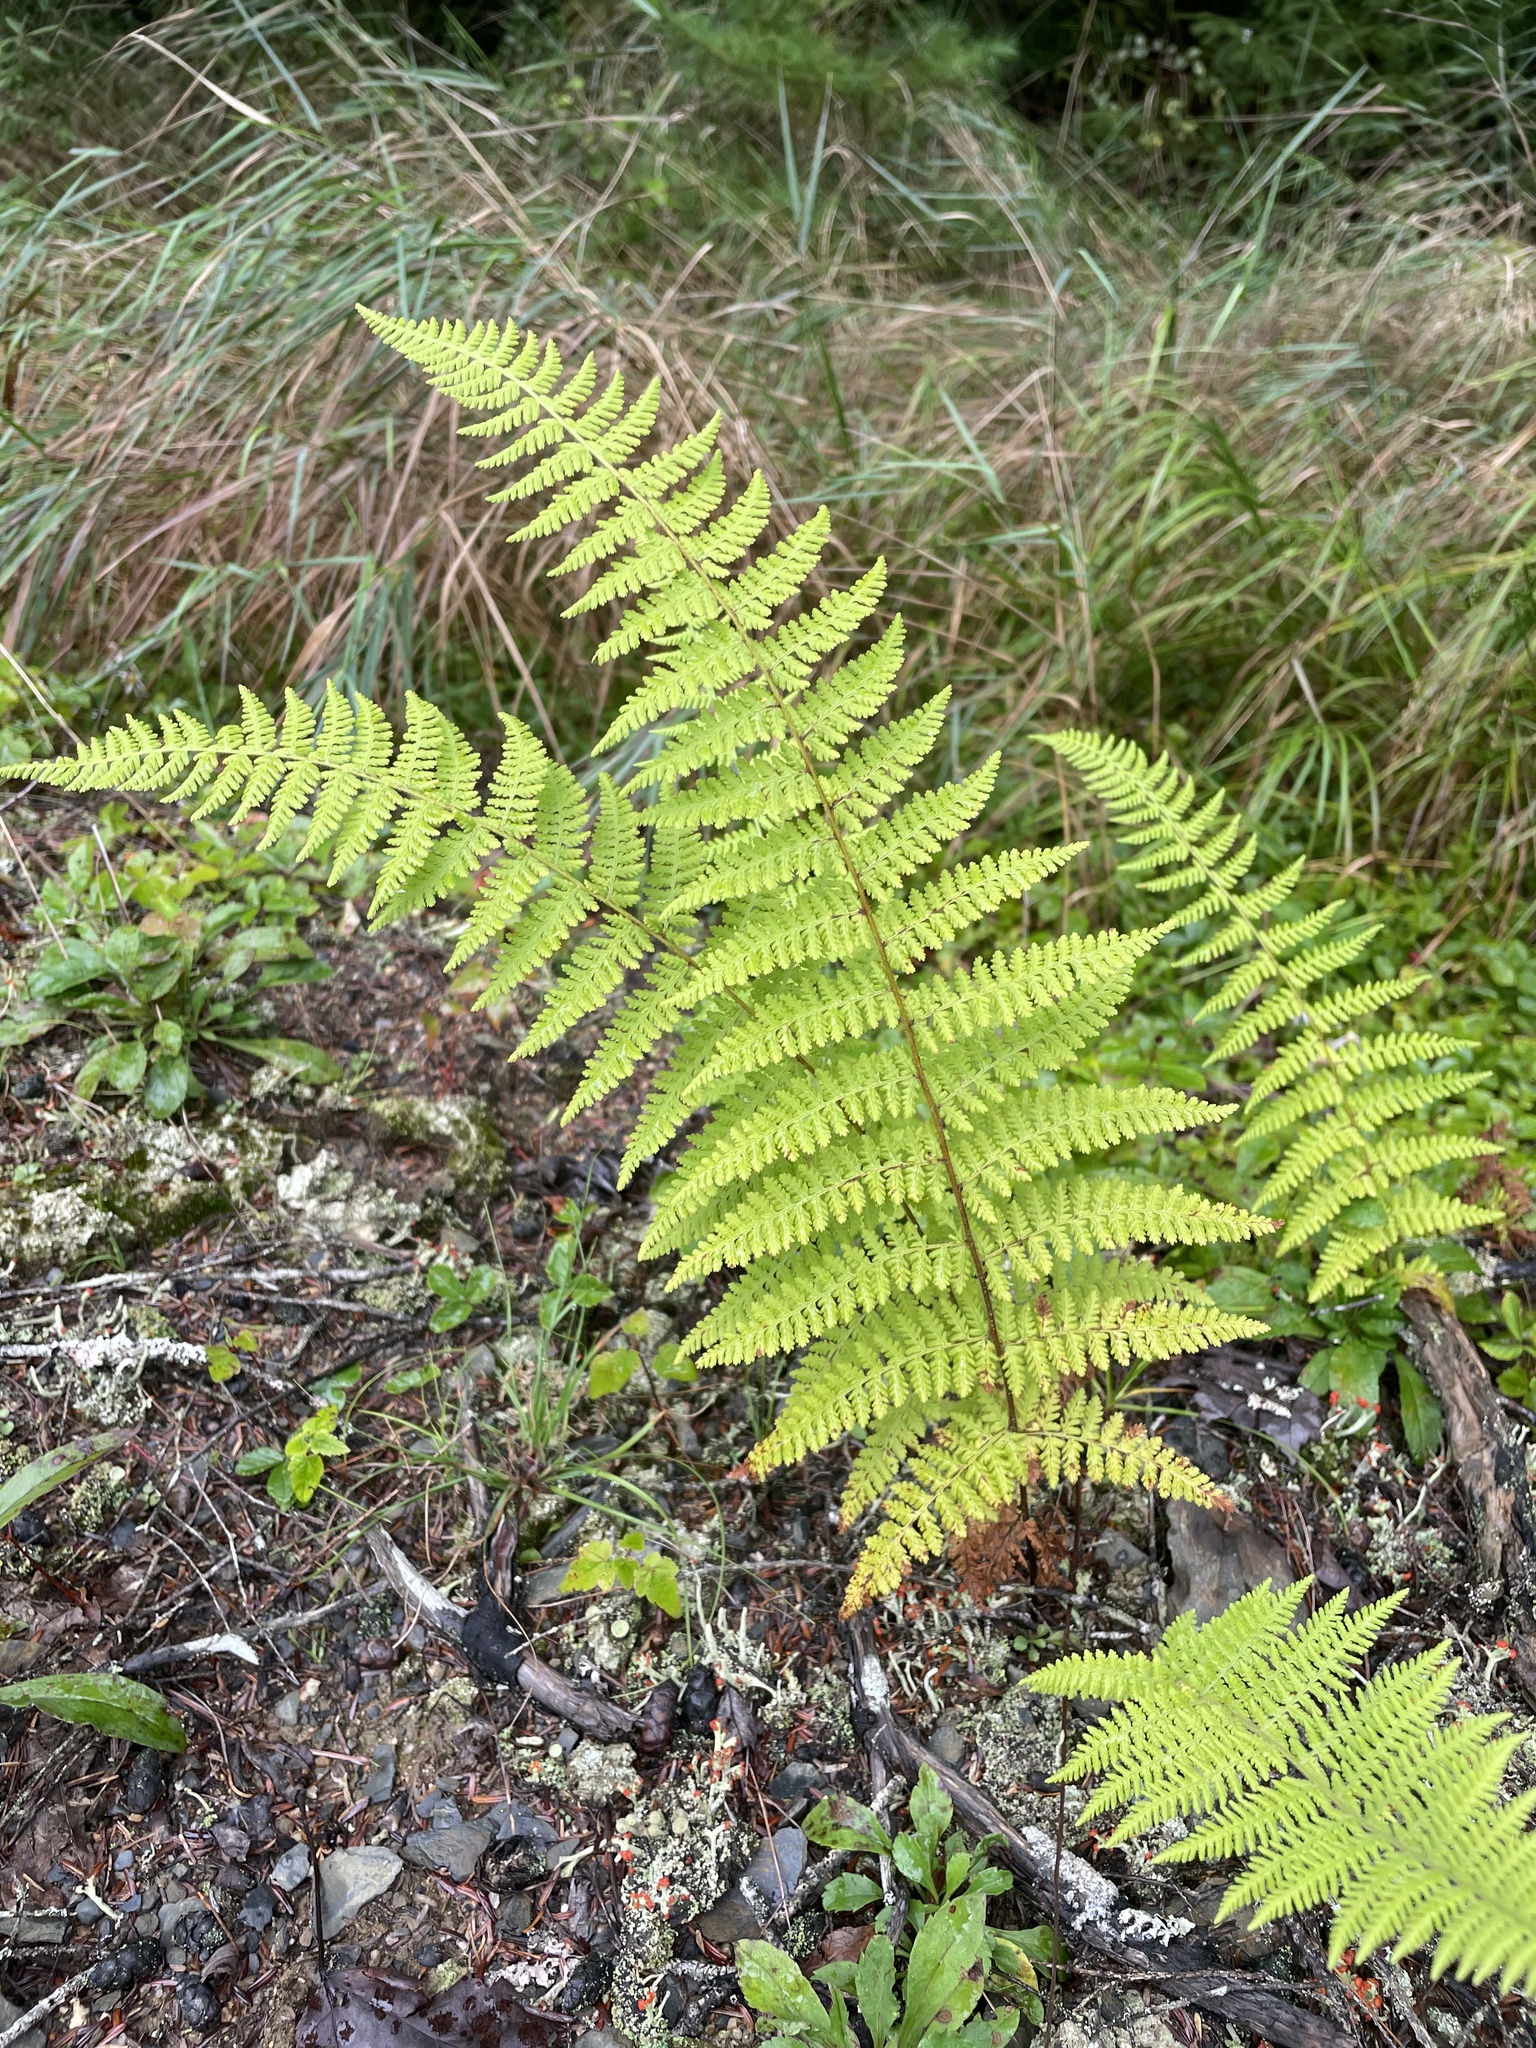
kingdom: Plantae
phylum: Tracheophyta
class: Polypodiopsida
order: Polypodiales
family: Dennstaedtiaceae
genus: Sitobolium
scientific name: Sitobolium punctilobum
